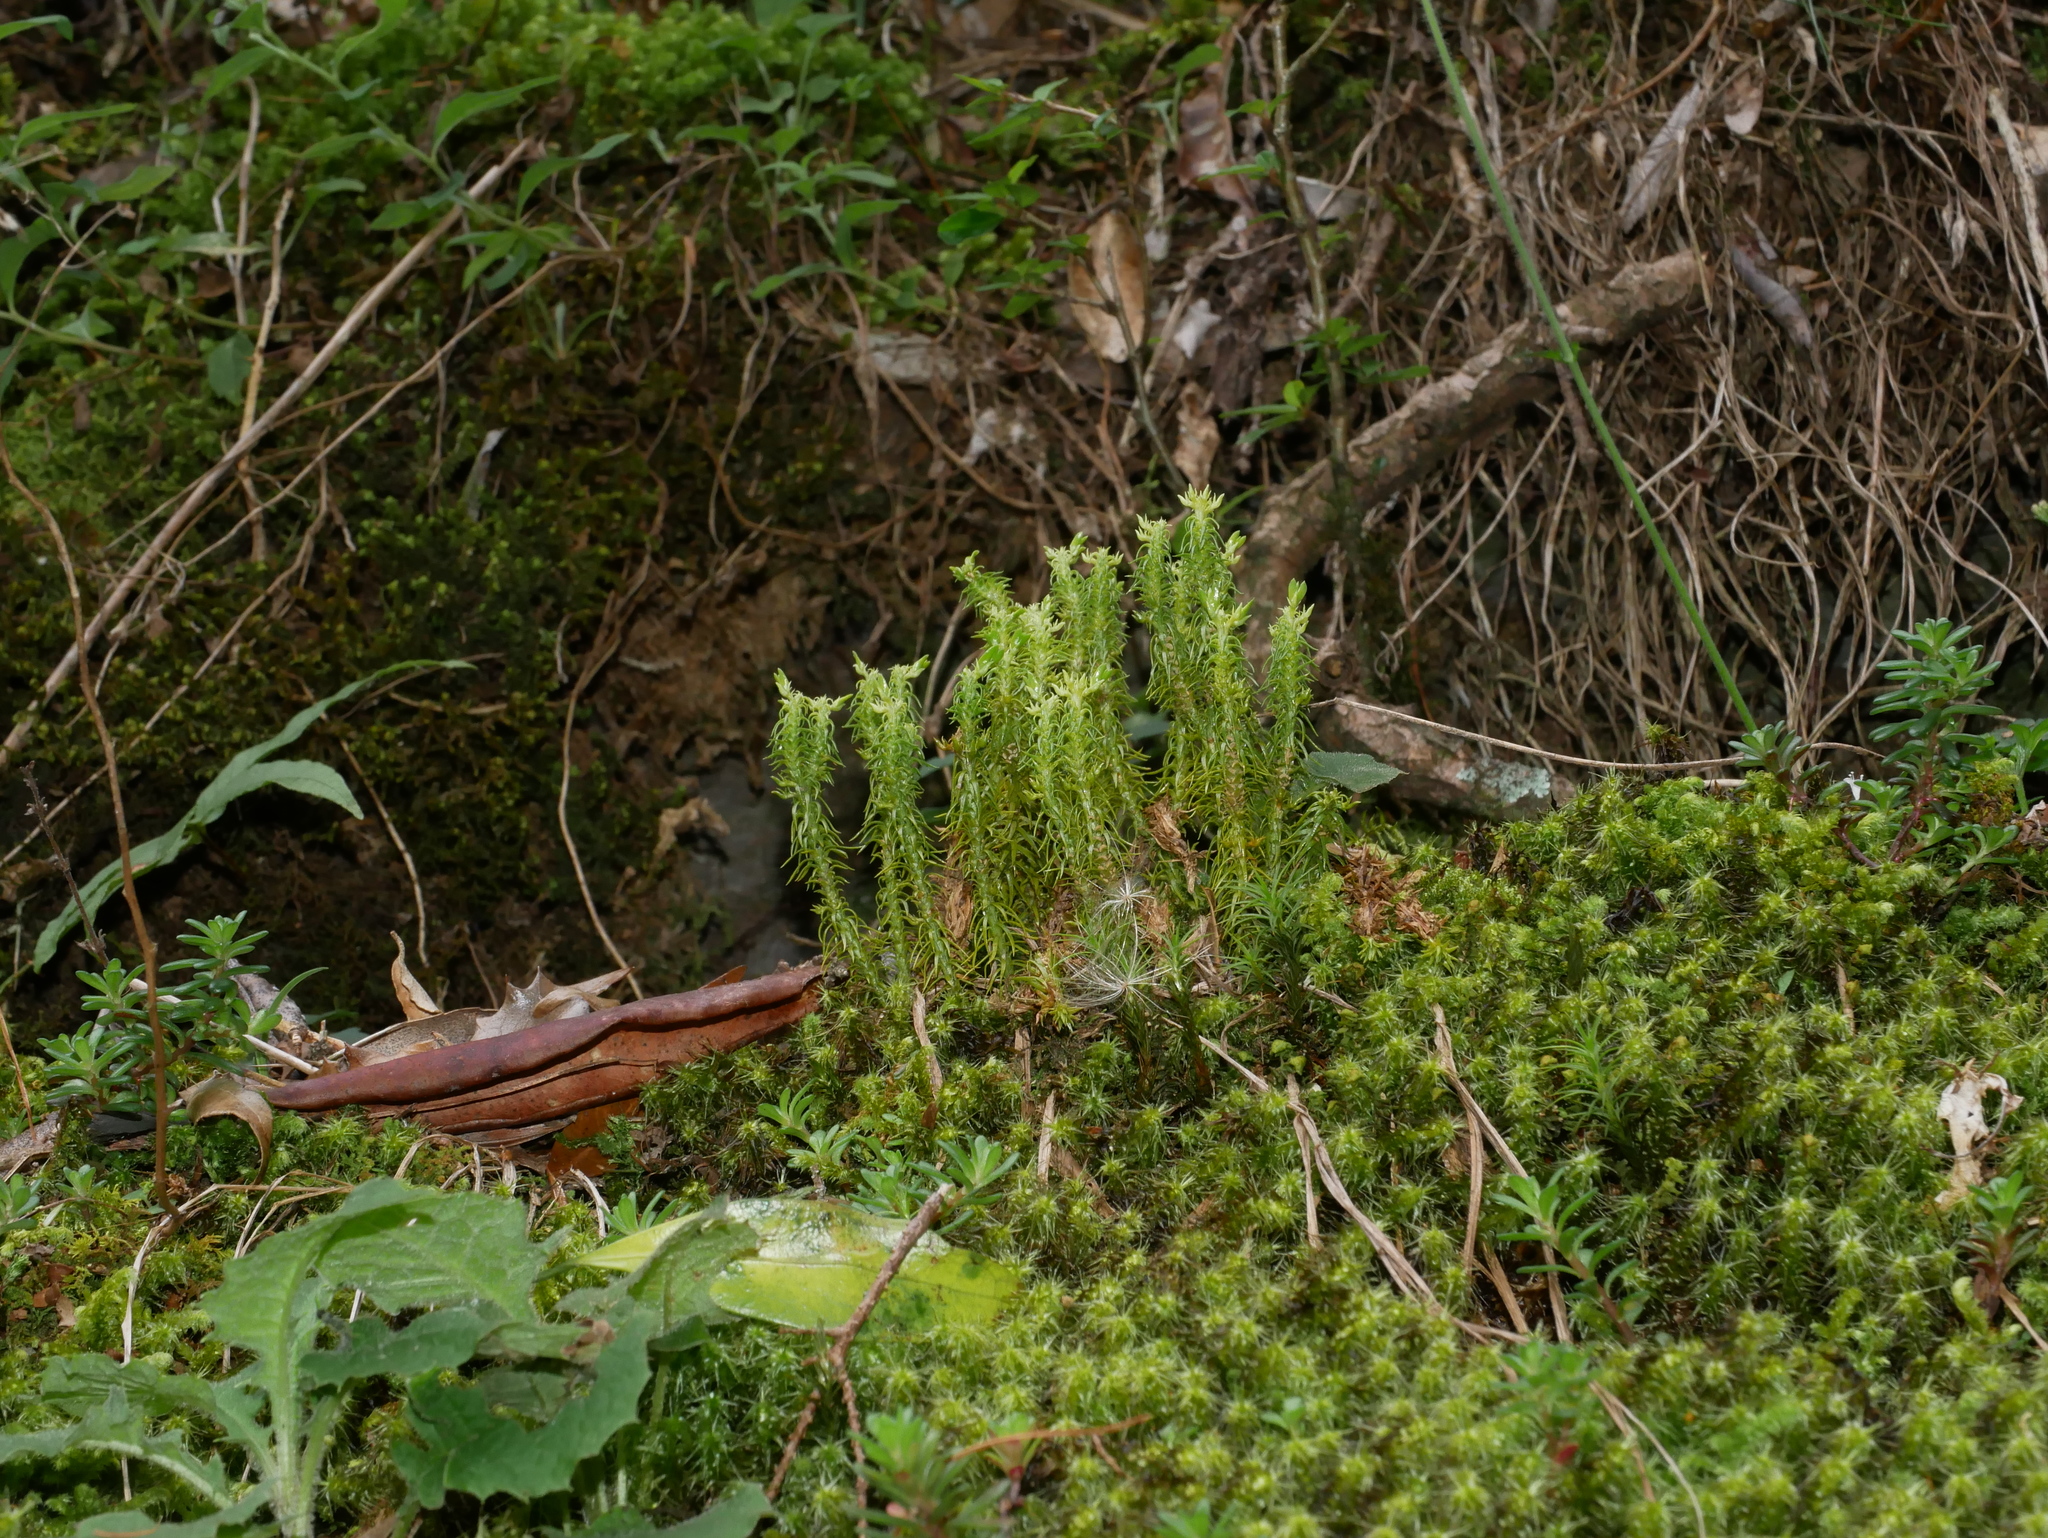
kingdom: Plantae
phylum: Tracheophyta
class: Lycopodiopsida
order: Lycopodiales
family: Lycopodiaceae
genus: Huperzia
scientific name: Huperzia quasipolytrichoides
